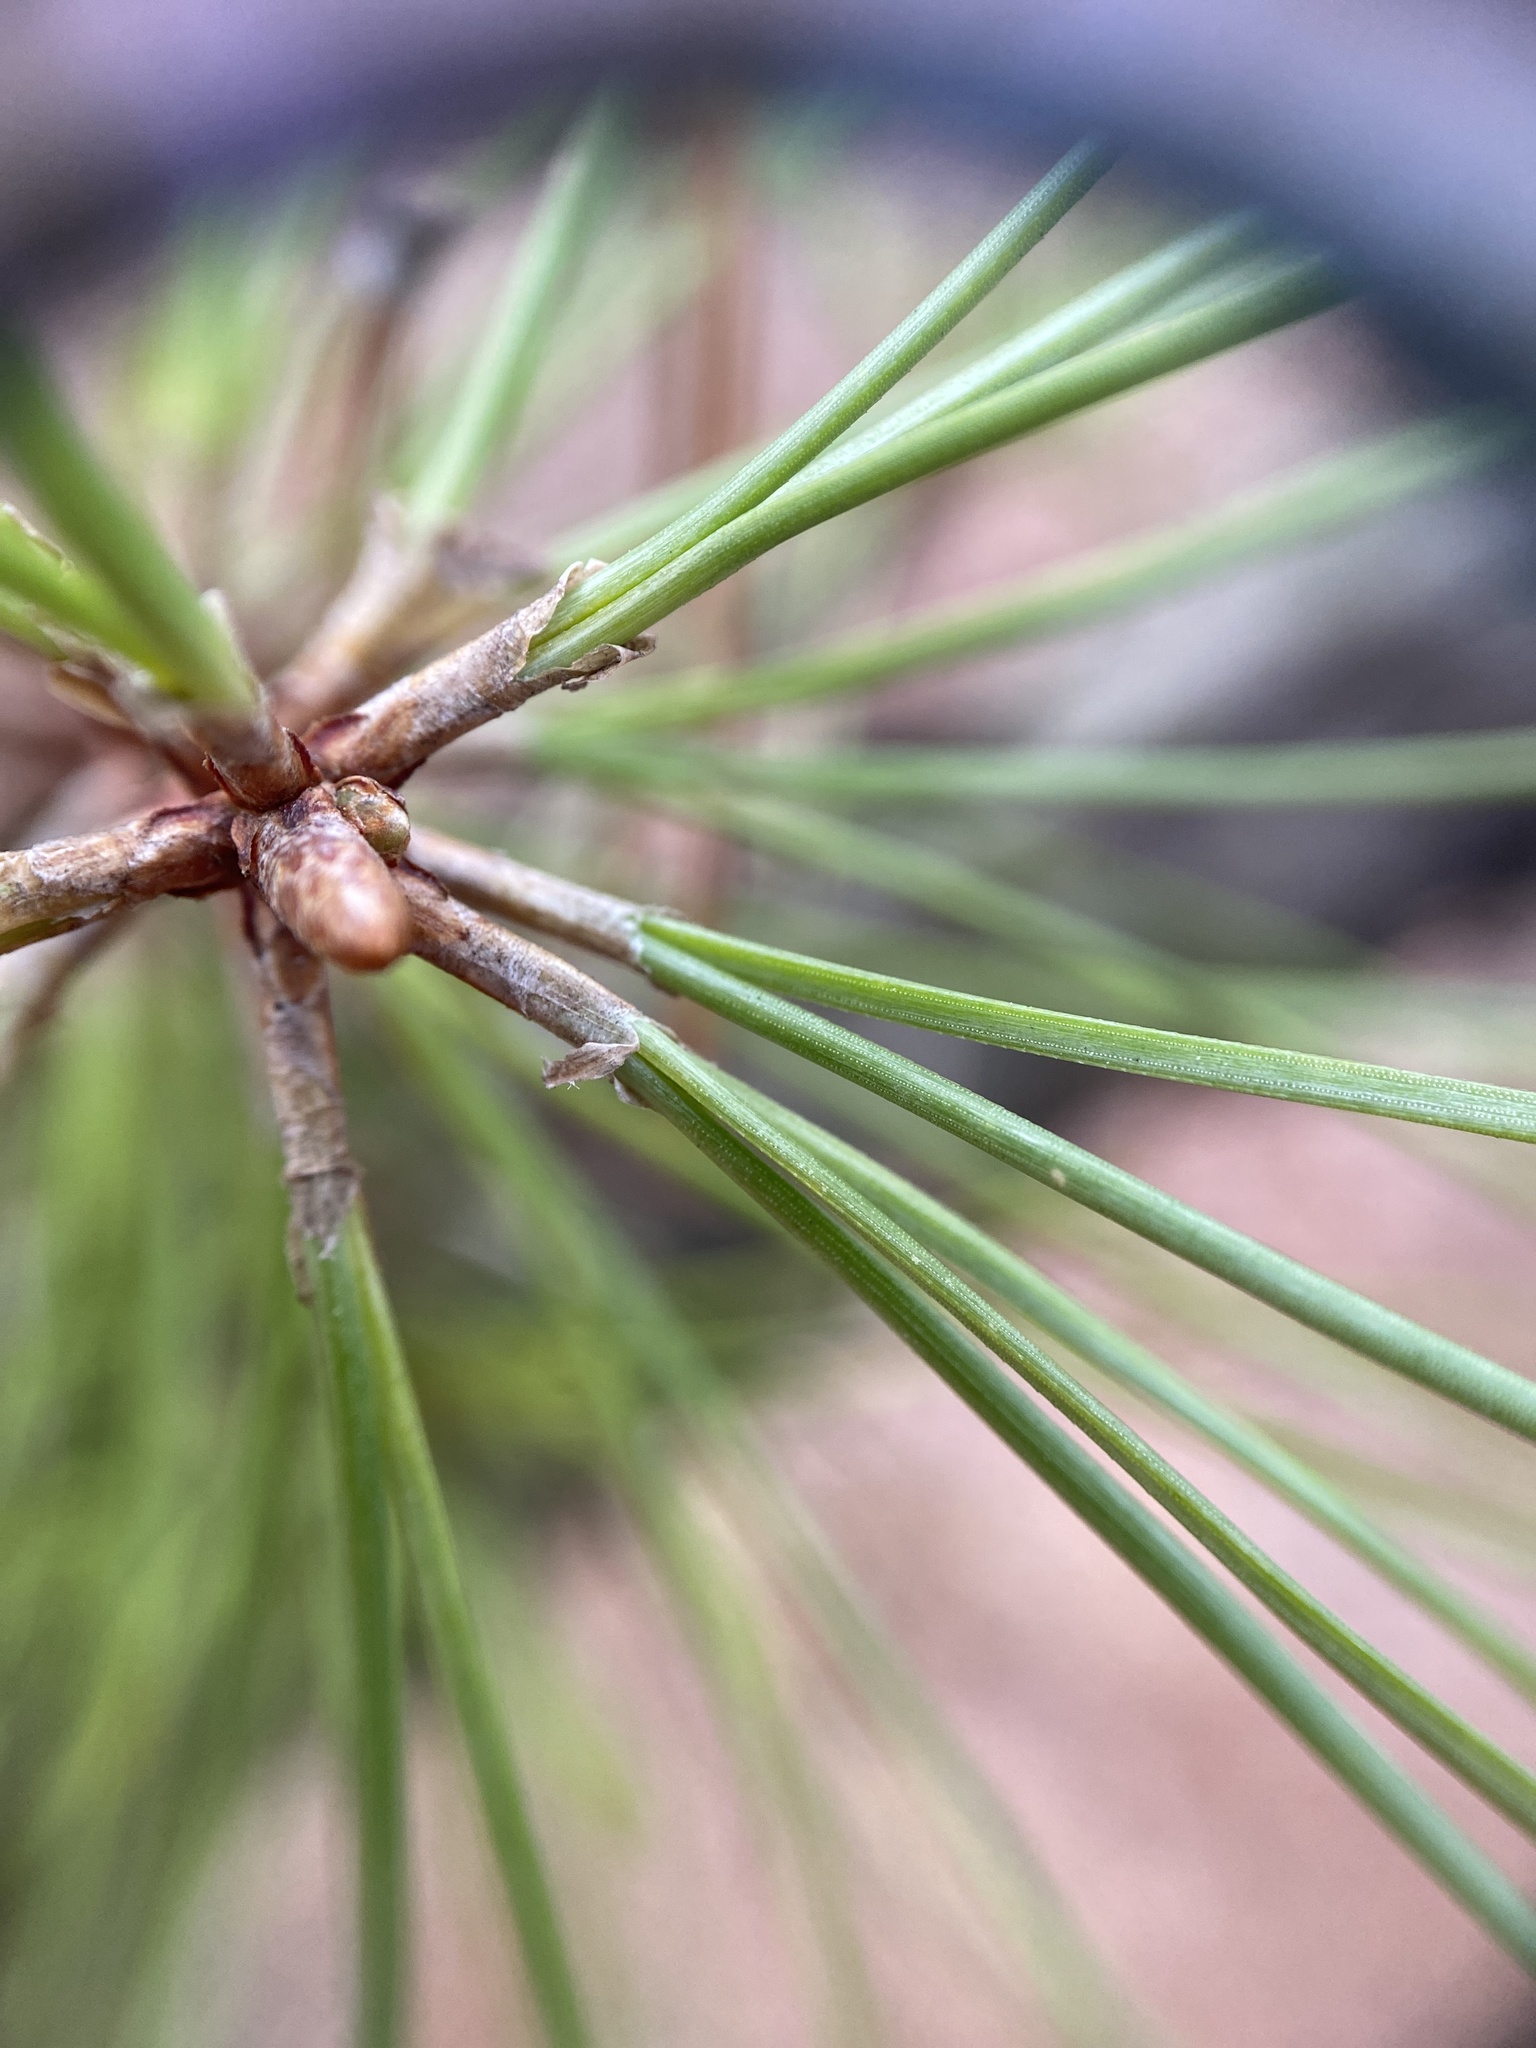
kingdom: Plantae
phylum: Tracheophyta
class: Pinopsida
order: Pinales
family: Pinaceae
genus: Pinus
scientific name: Pinus echinata
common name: Shortleaf pine
